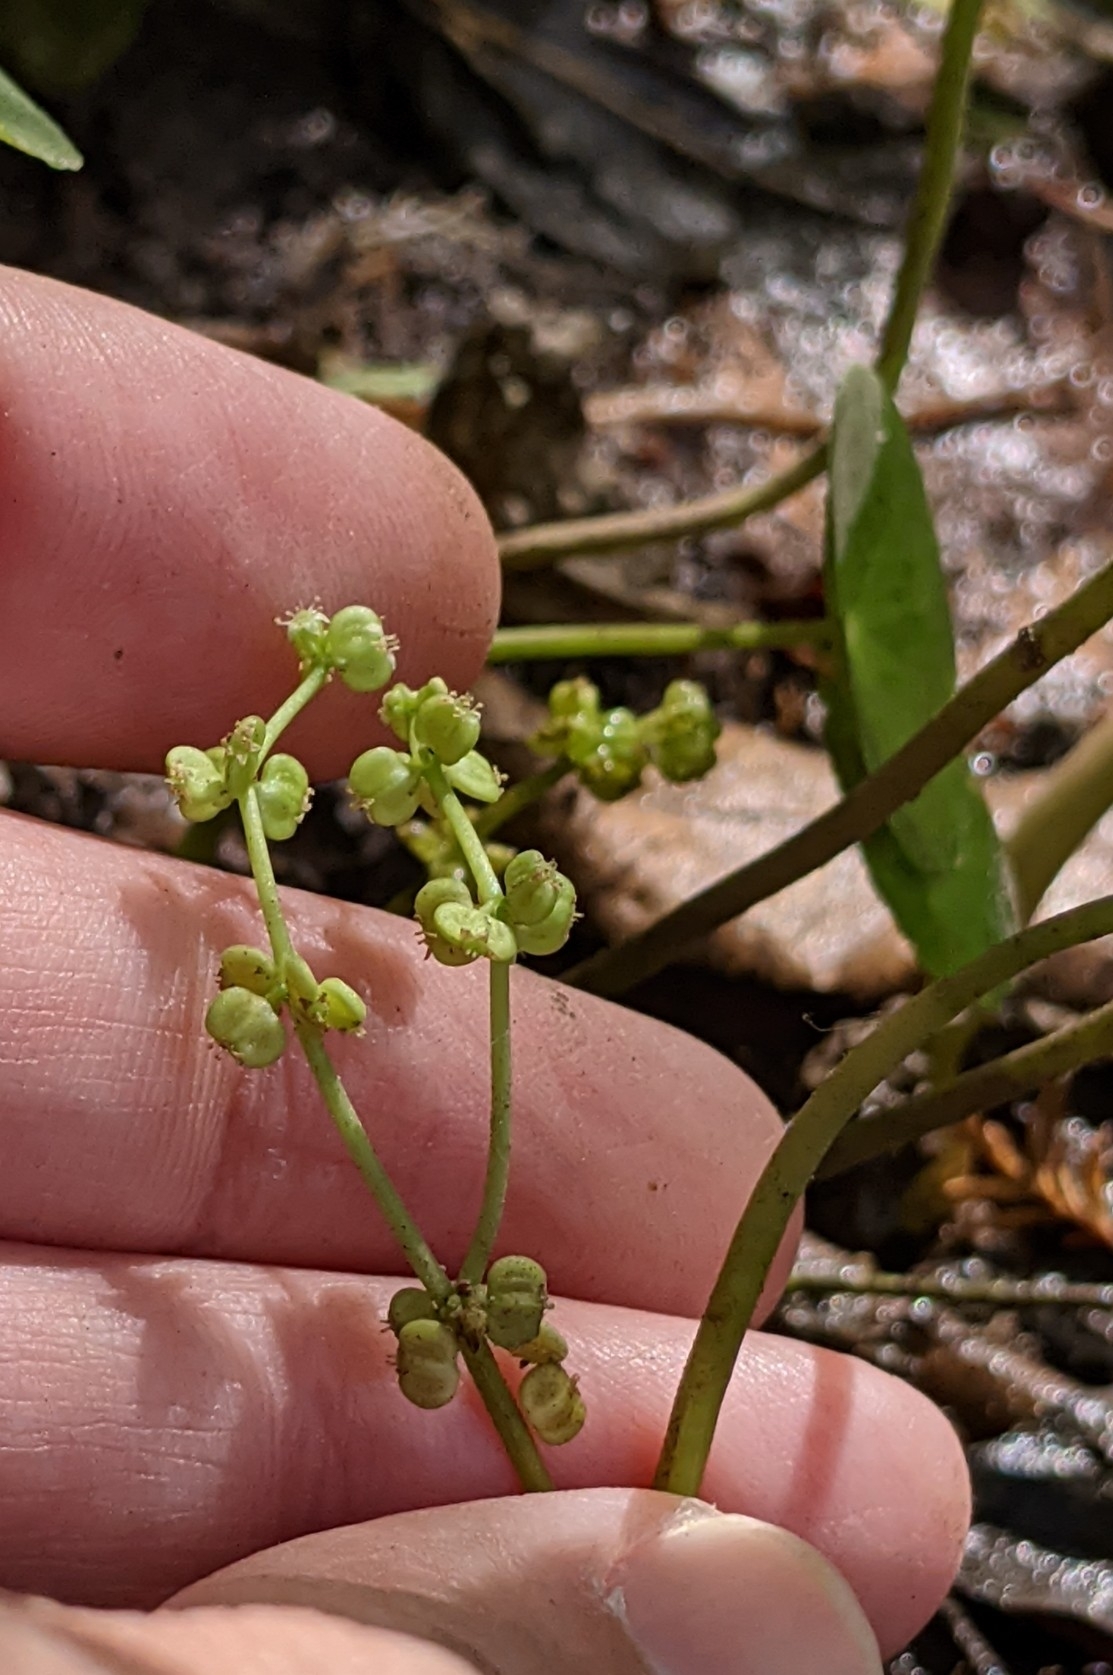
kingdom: Plantae
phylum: Tracheophyta
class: Magnoliopsida
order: Apiales
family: Araliaceae
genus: Hydrocotyle
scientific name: Hydrocotyle verticillata
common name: Whorled marshpennywort
